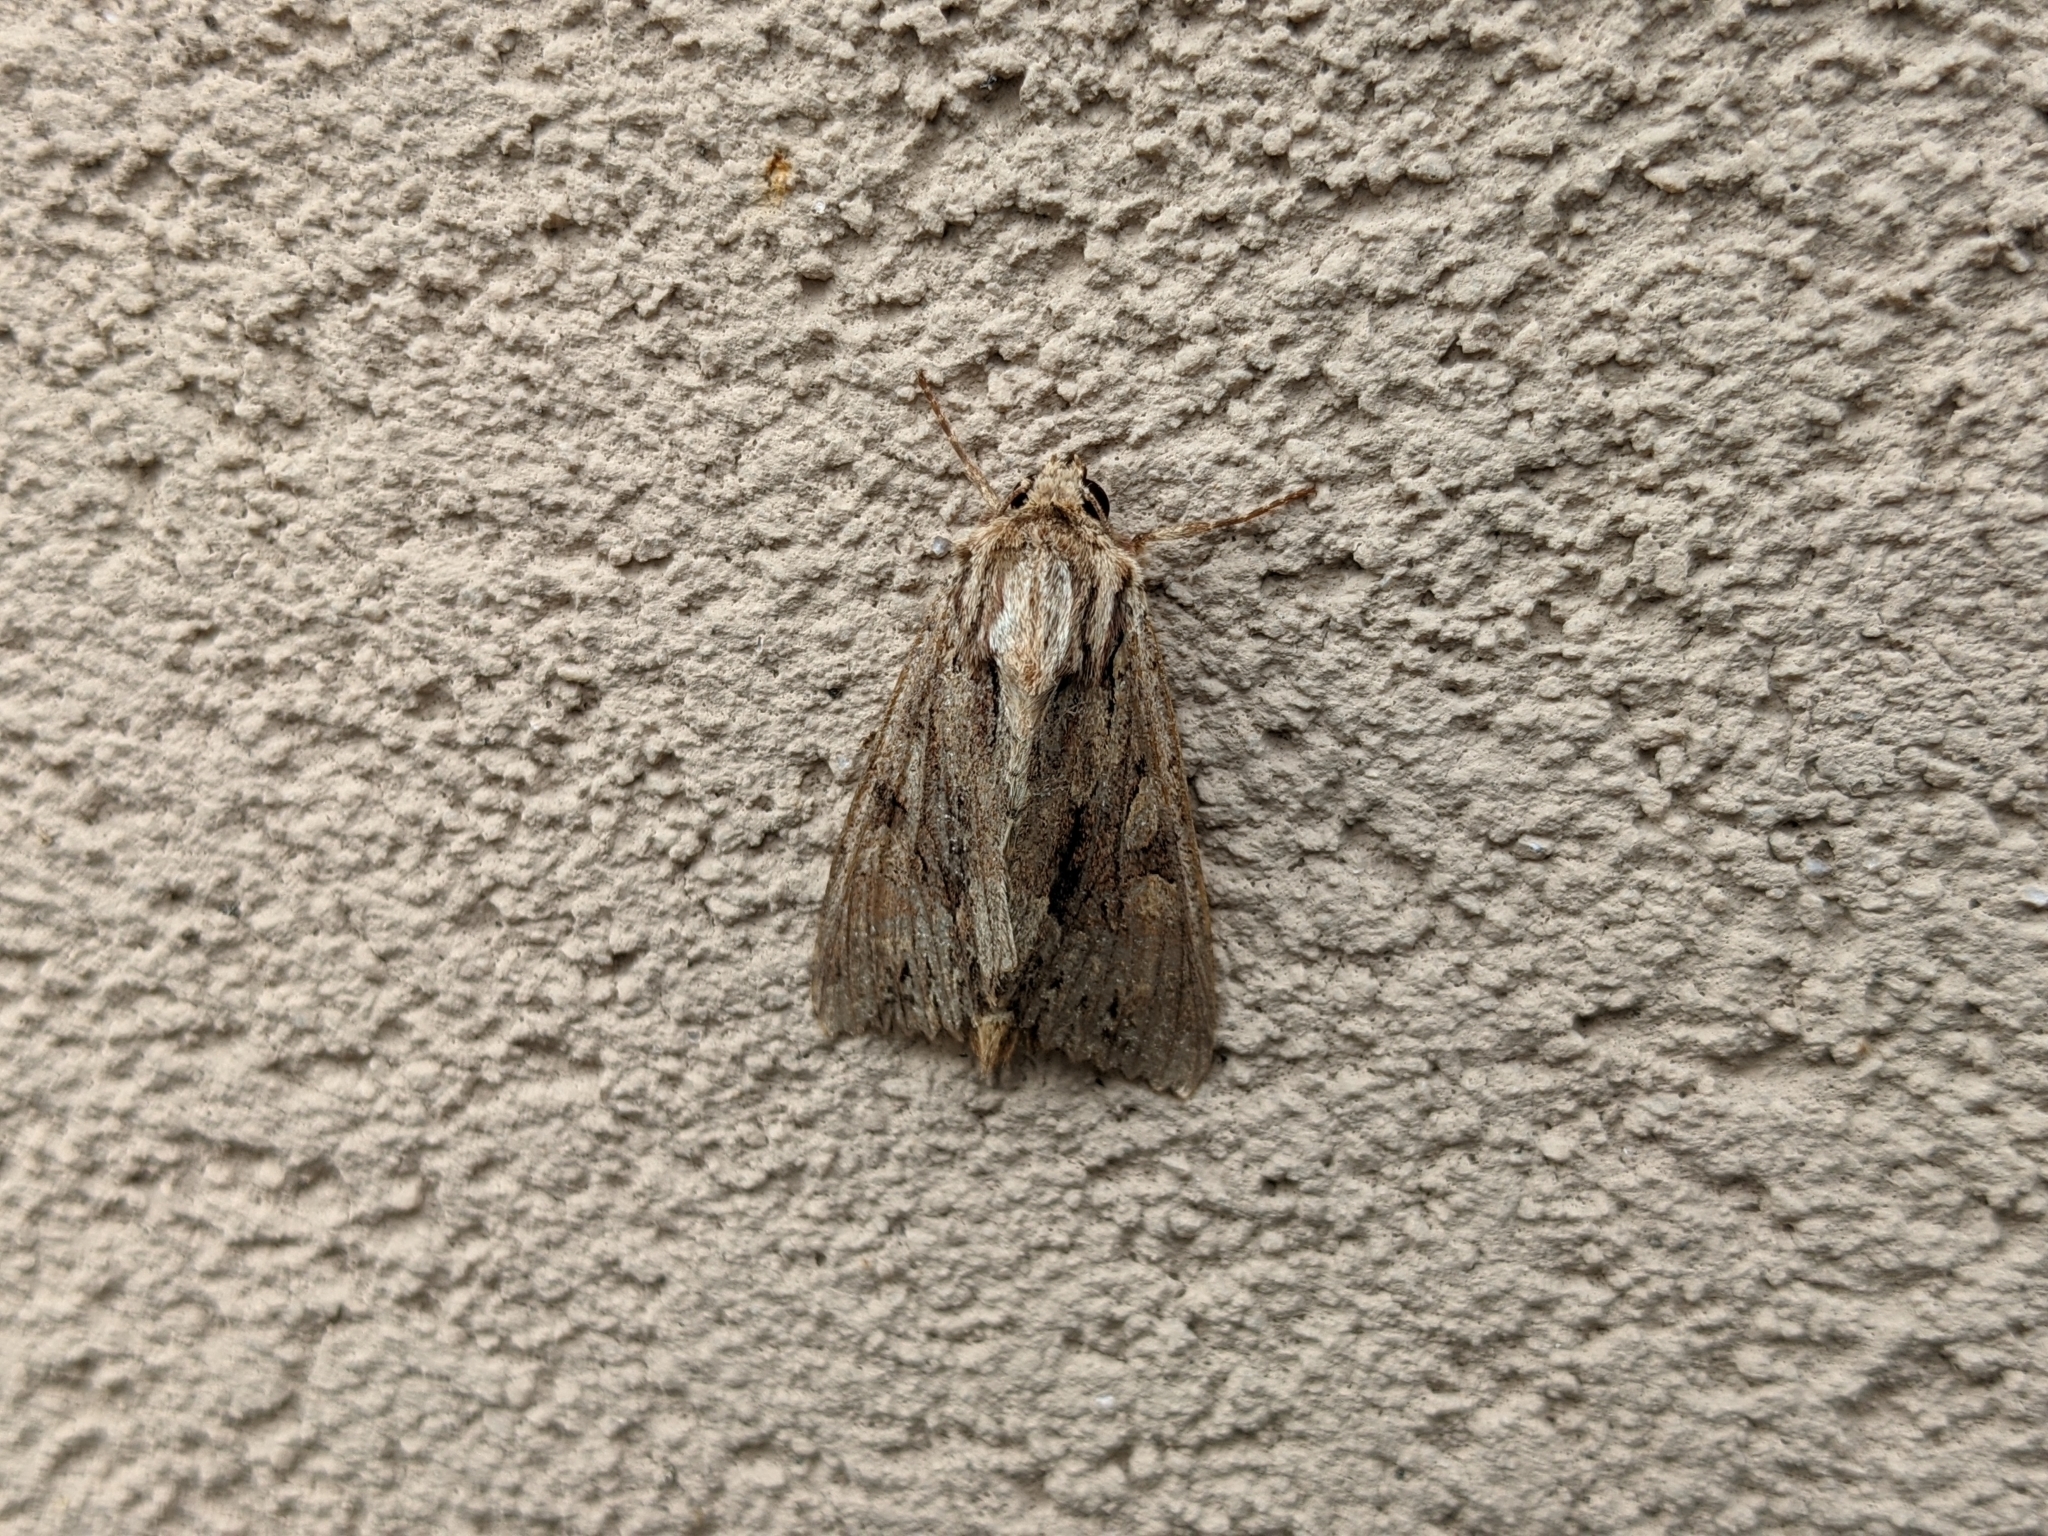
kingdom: Animalia
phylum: Arthropoda
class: Insecta
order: Lepidoptera
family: Noctuidae
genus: Apamea
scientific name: Apamea monoglypha
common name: Dark arches
